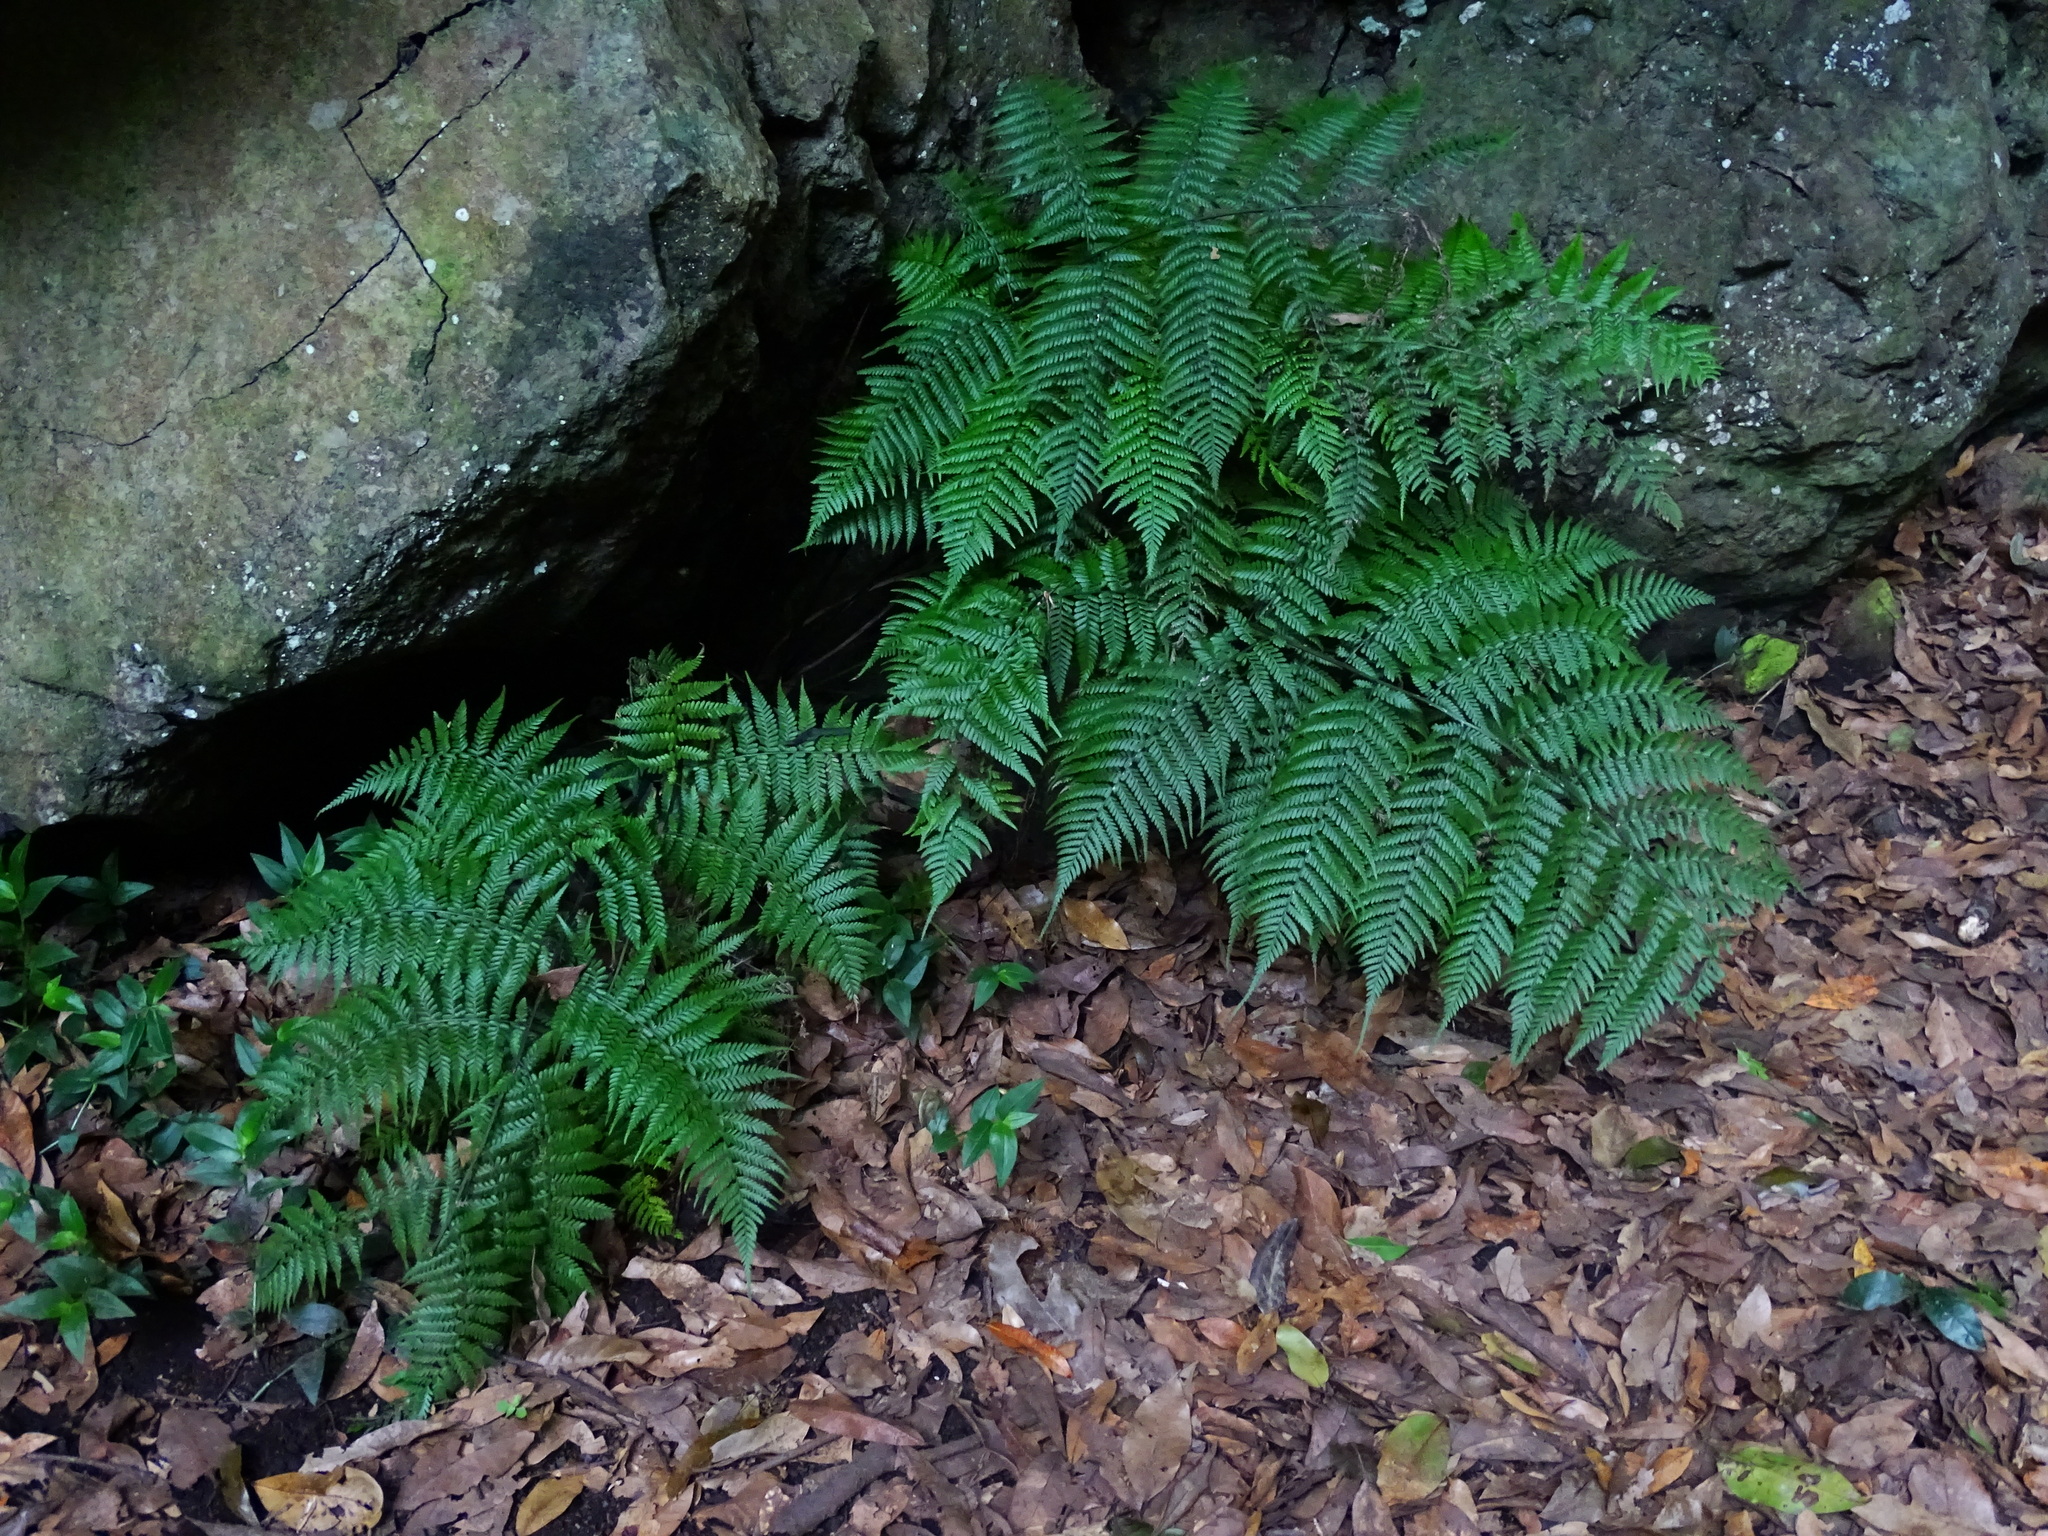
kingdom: Plantae
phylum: Tracheophyta
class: Polypodiopsida
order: Polypodiales
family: Athyriaceae
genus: Diplazium
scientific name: Diplazium caudatum
